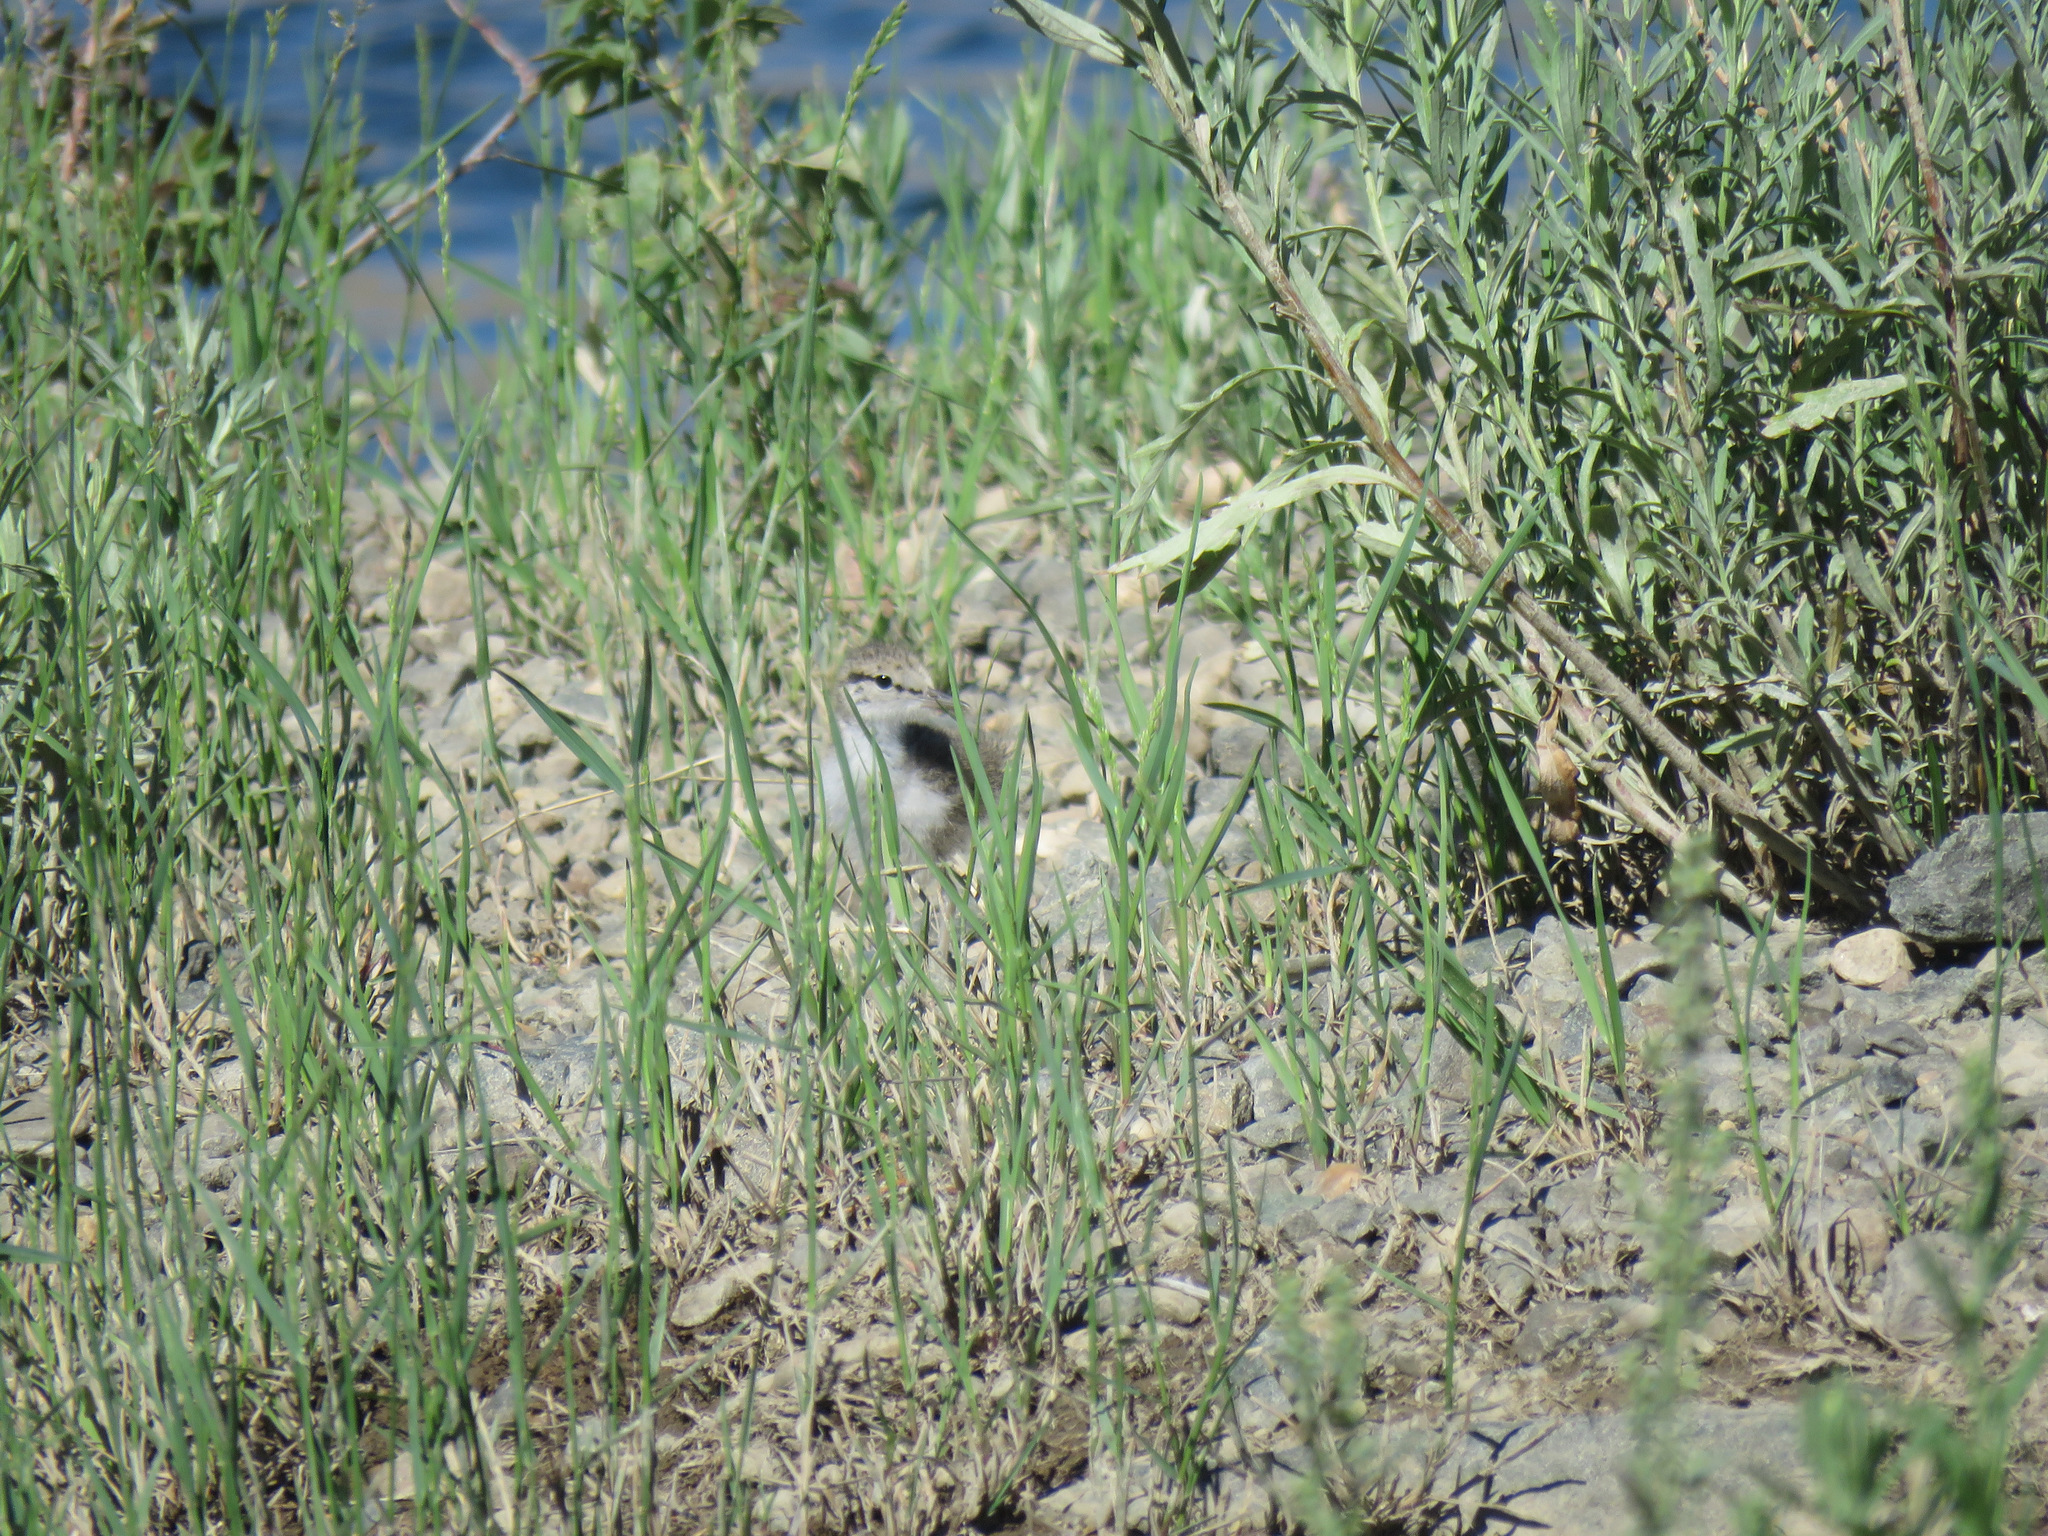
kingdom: Animalia
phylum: Chordata
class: Aves
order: Charadriiformes
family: Scolopacidae
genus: Actitis
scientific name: Actitis macularius
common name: Spotted sandpiper
